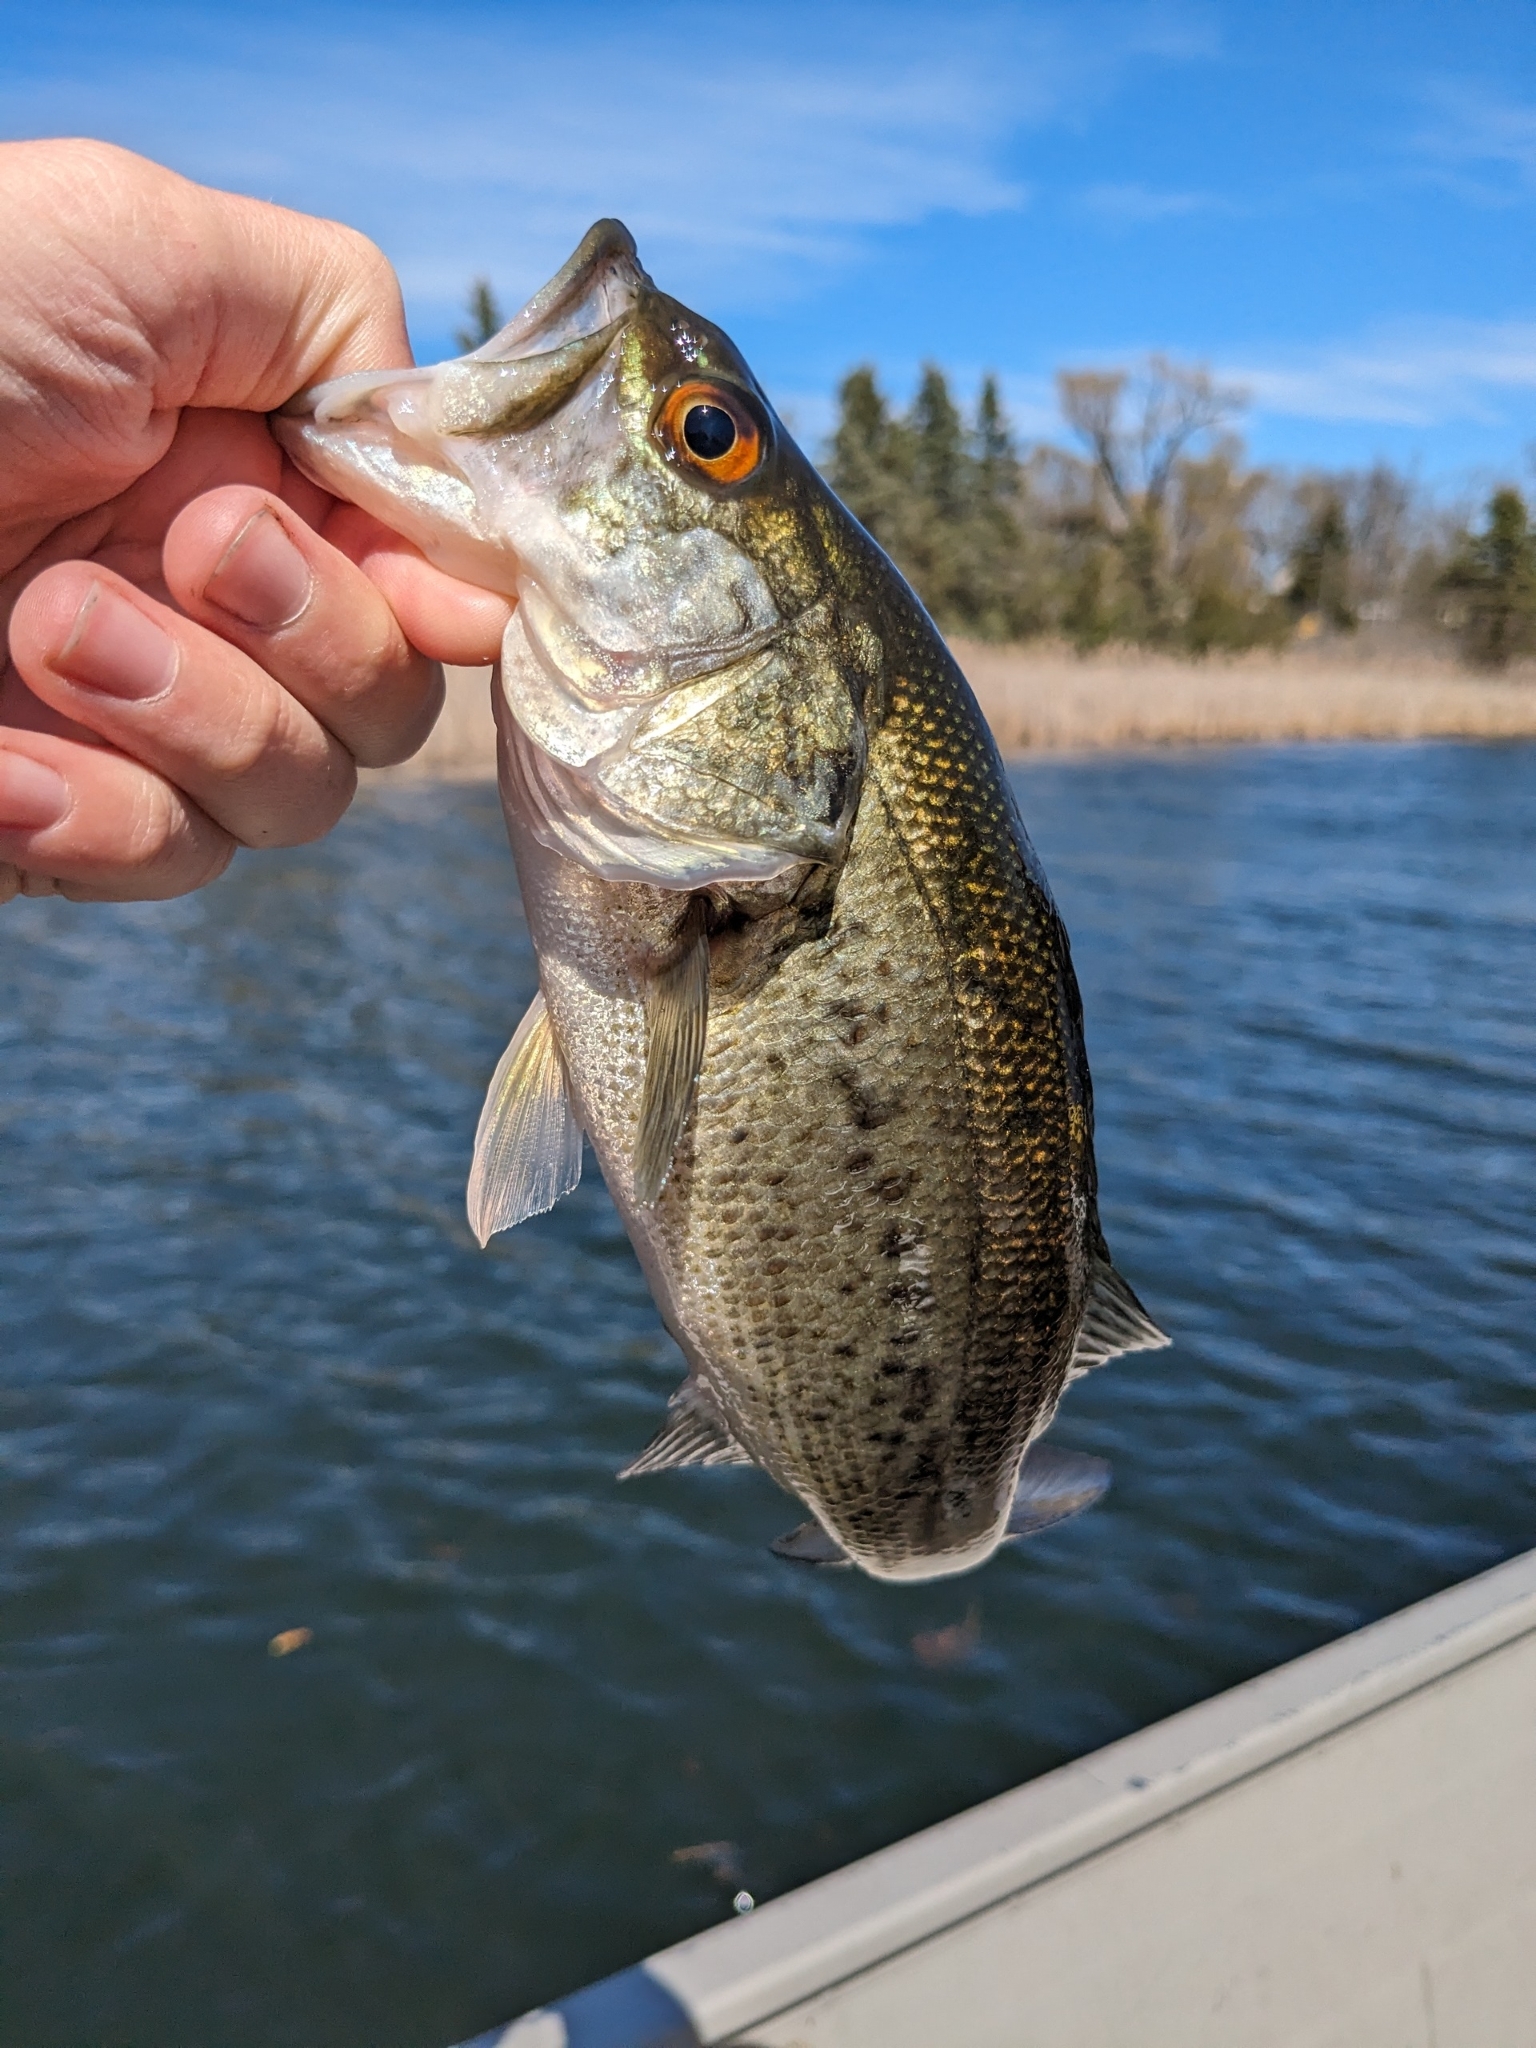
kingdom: Animalia
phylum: Chordata
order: Perciformes
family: Centrarchidae
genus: Micropterus
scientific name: Micropterus
